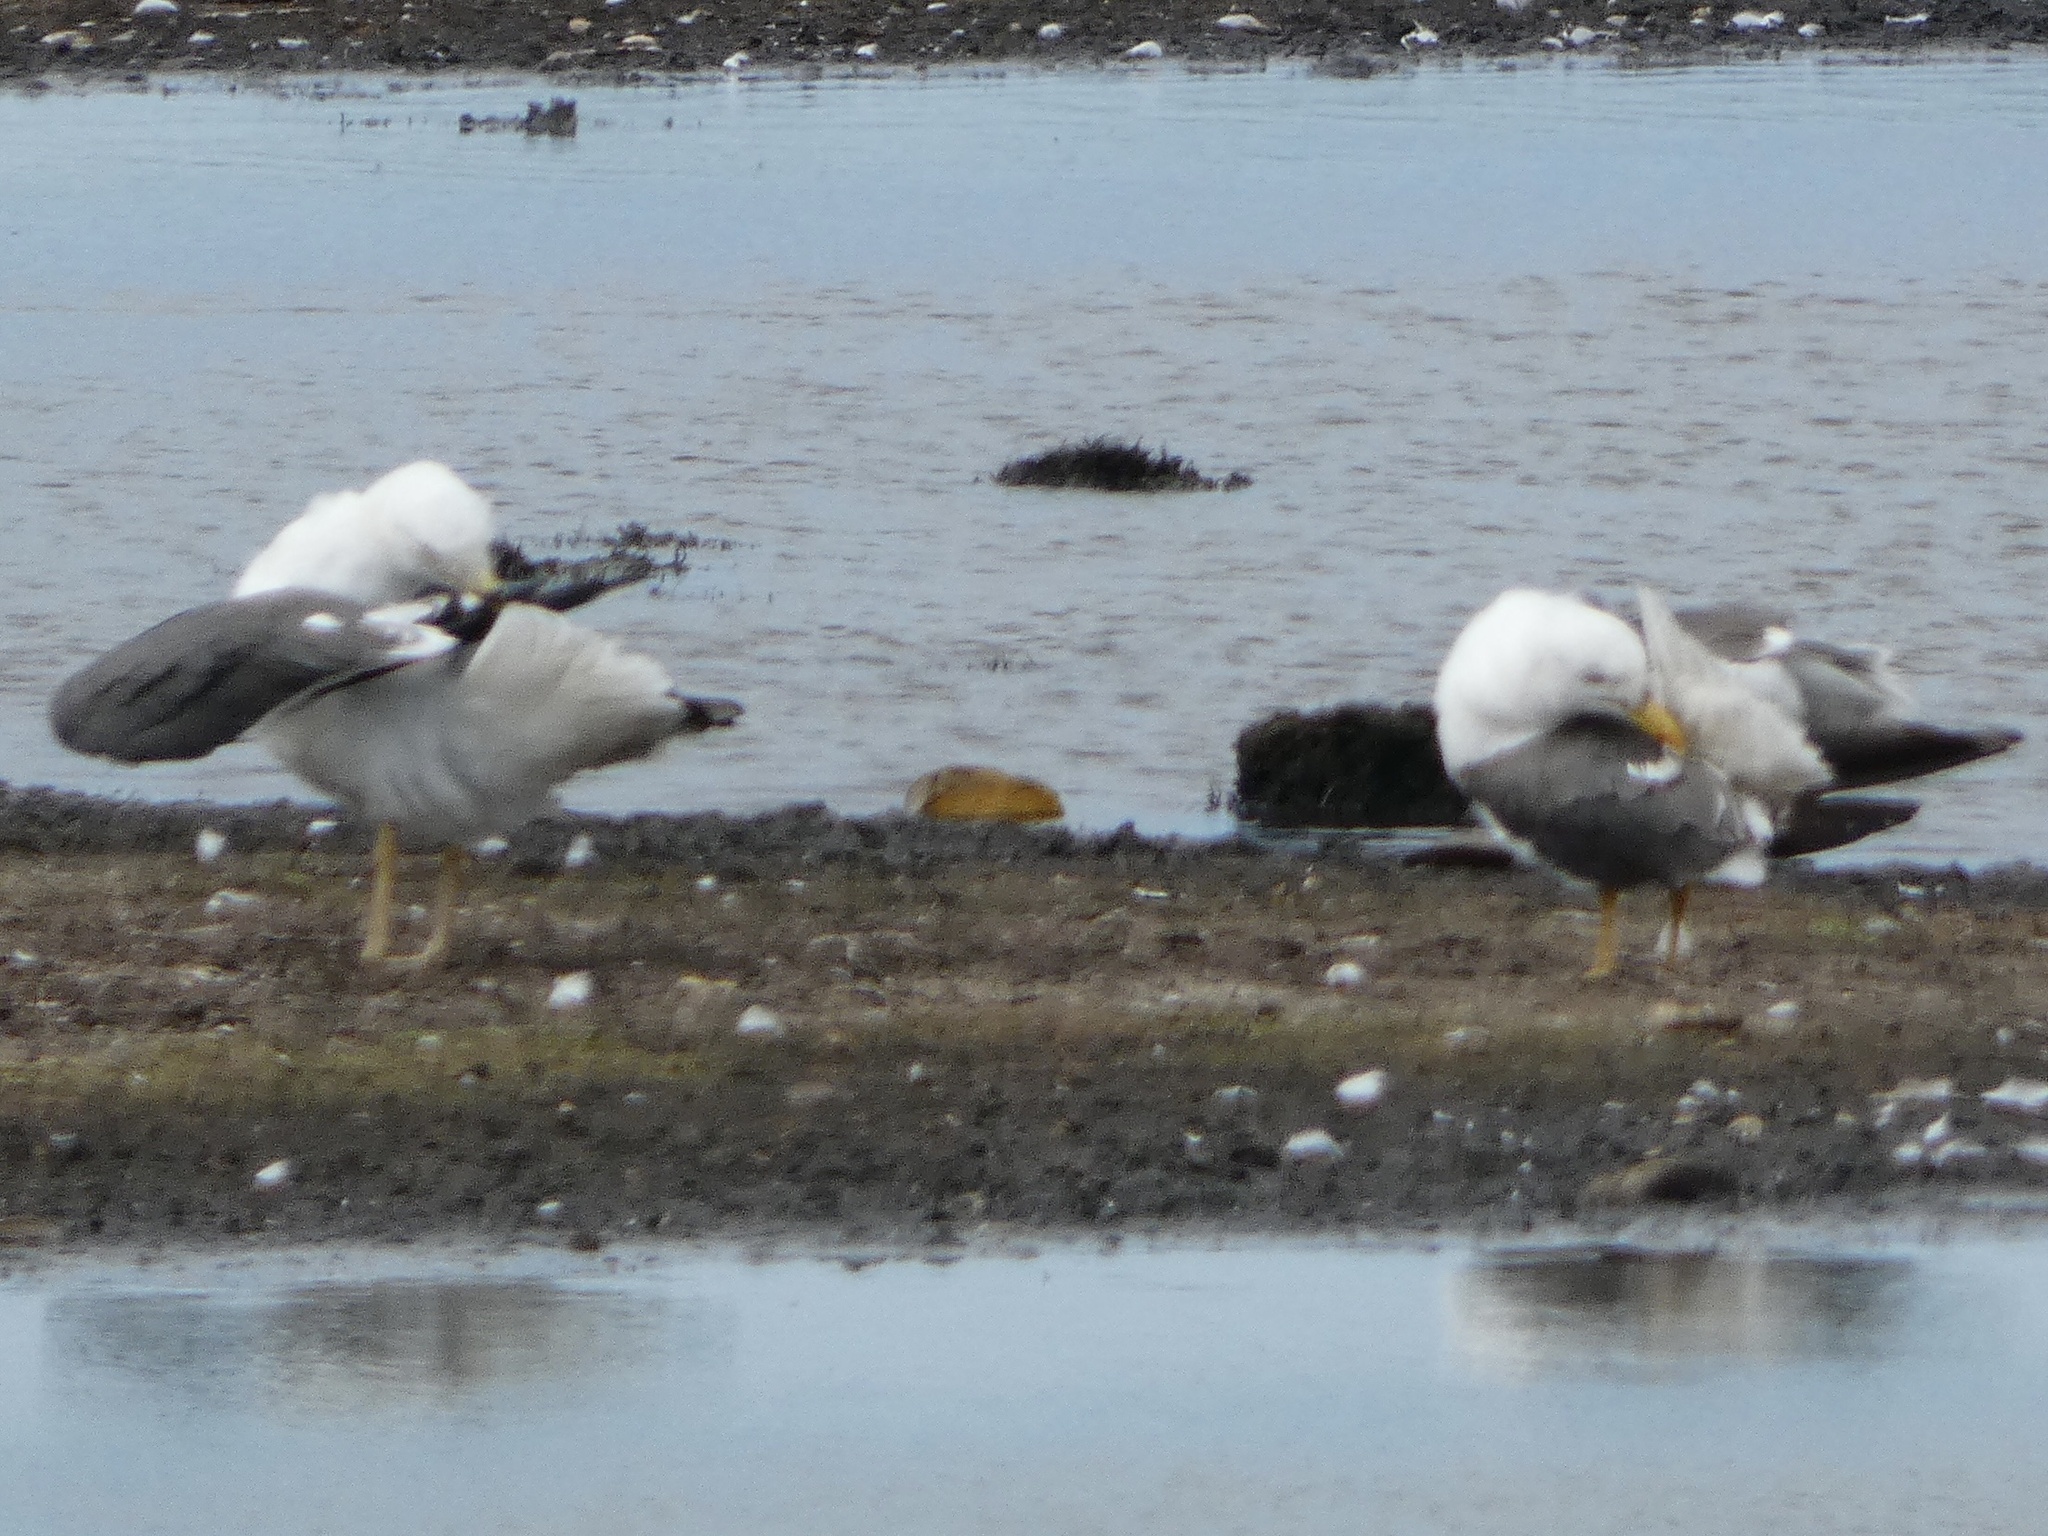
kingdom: Animalia
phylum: Chordata
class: Aves
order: Charadriiformes
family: Laridae
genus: Larus
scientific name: Larus fuscus
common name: Lesser black-backed gull
